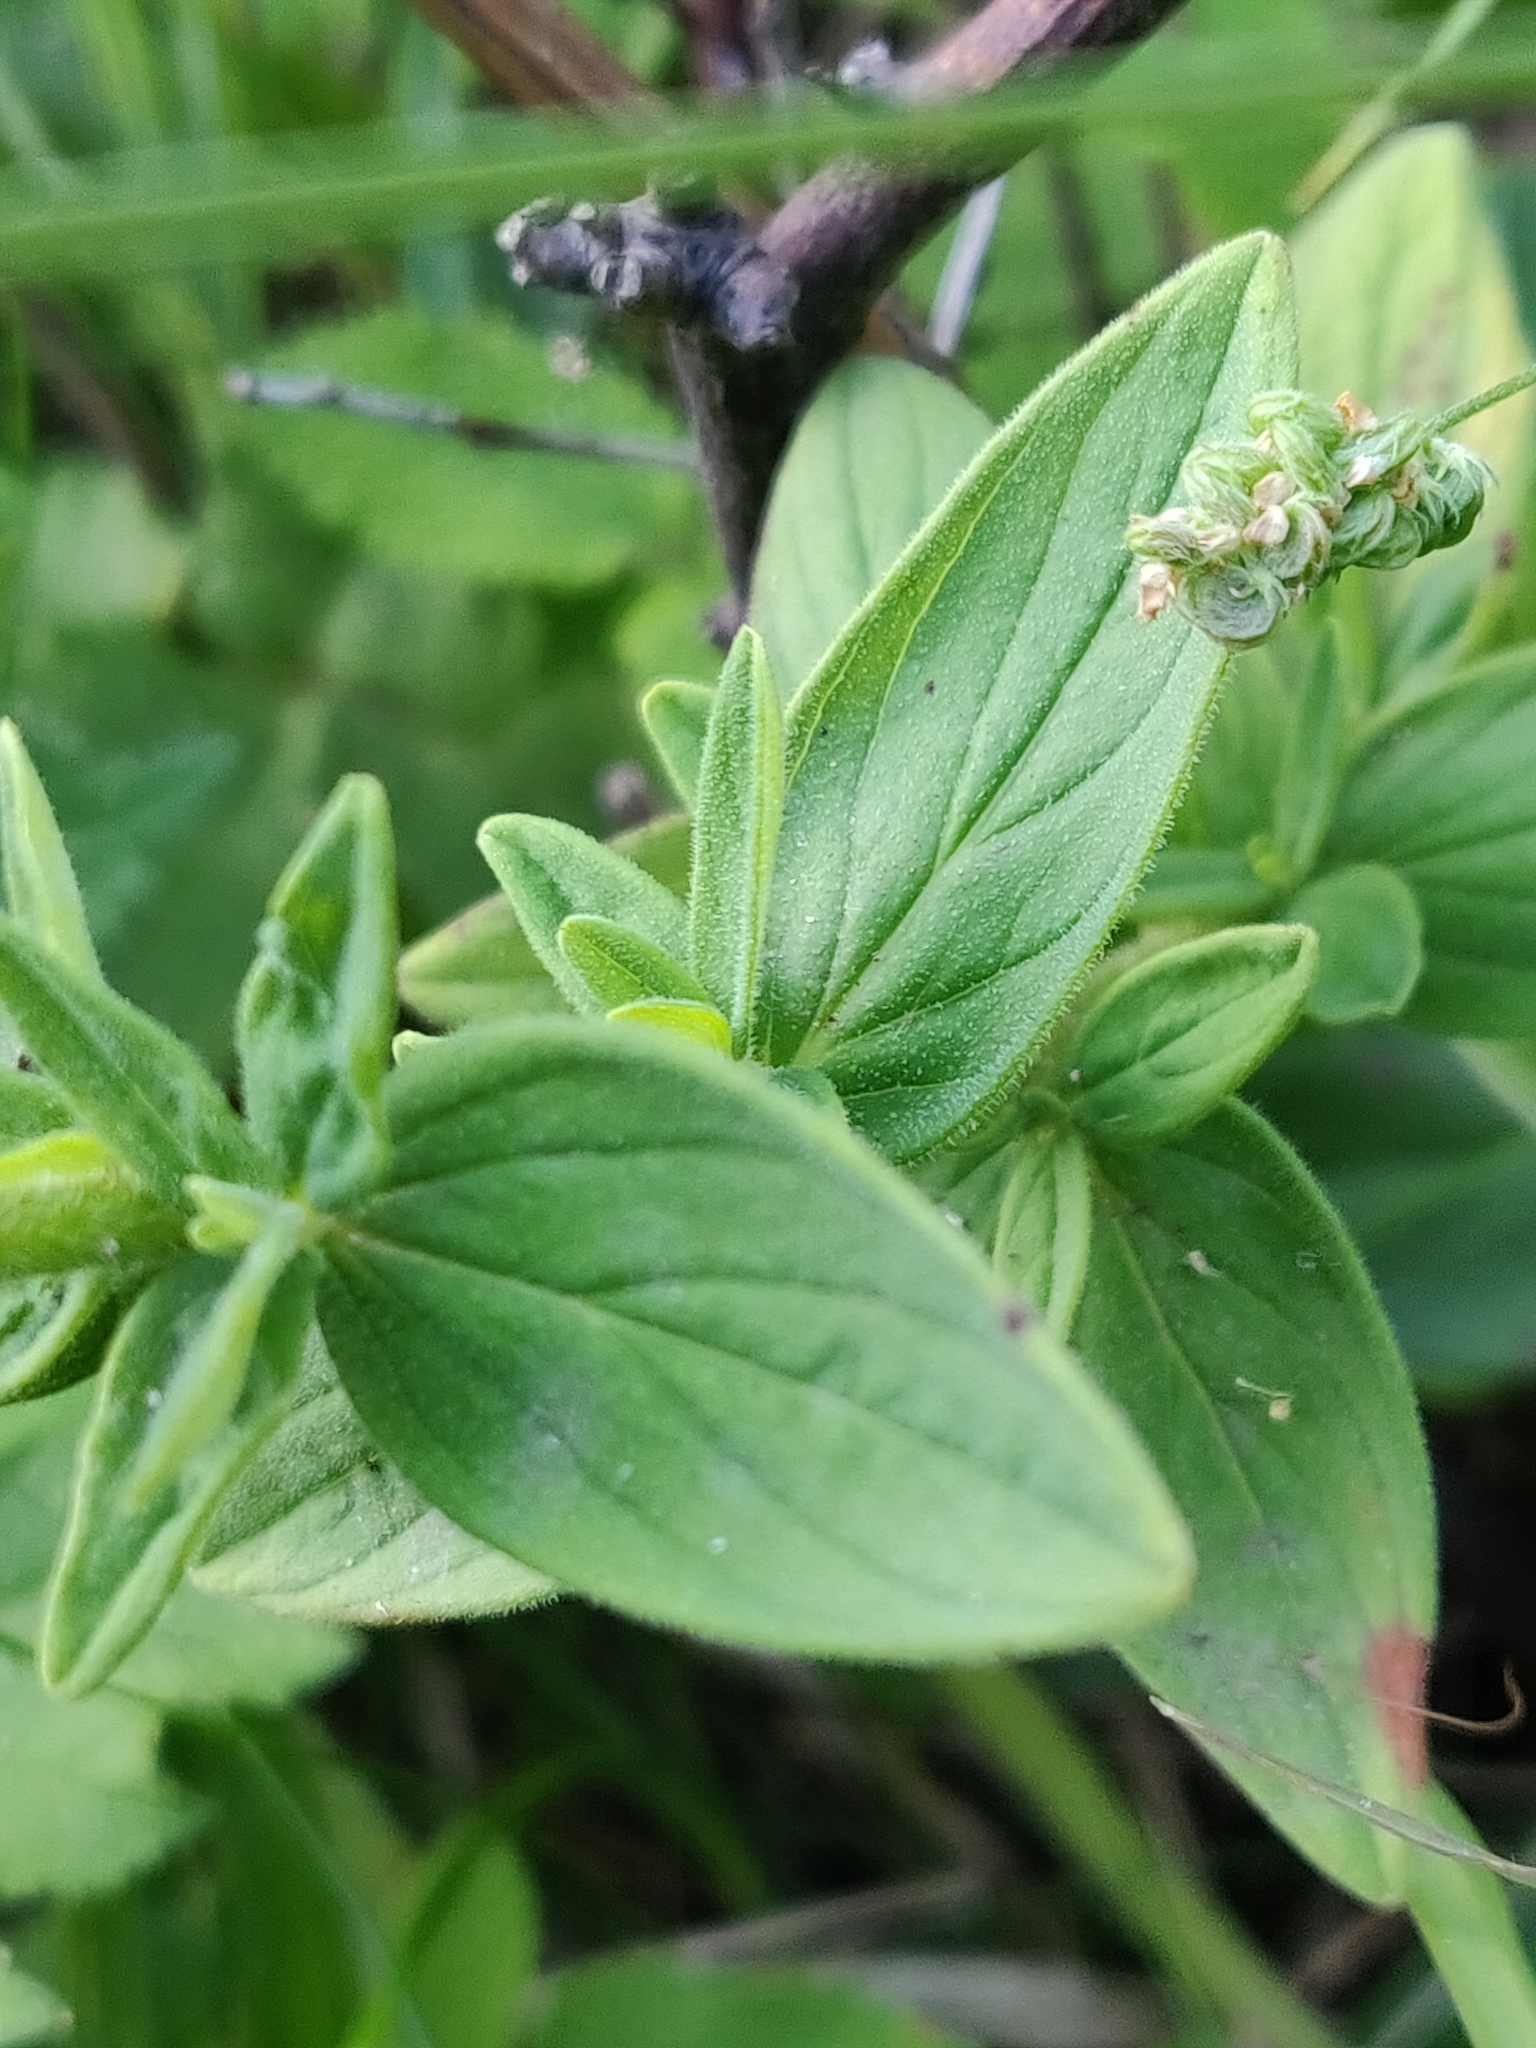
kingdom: Plantae
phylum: Tracheophyta
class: Magnoliopsida
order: Malpighiales
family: Hypericaceae
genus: Hypericum
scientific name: Hypericum hirsutum
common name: Hairy st. john's-wort
